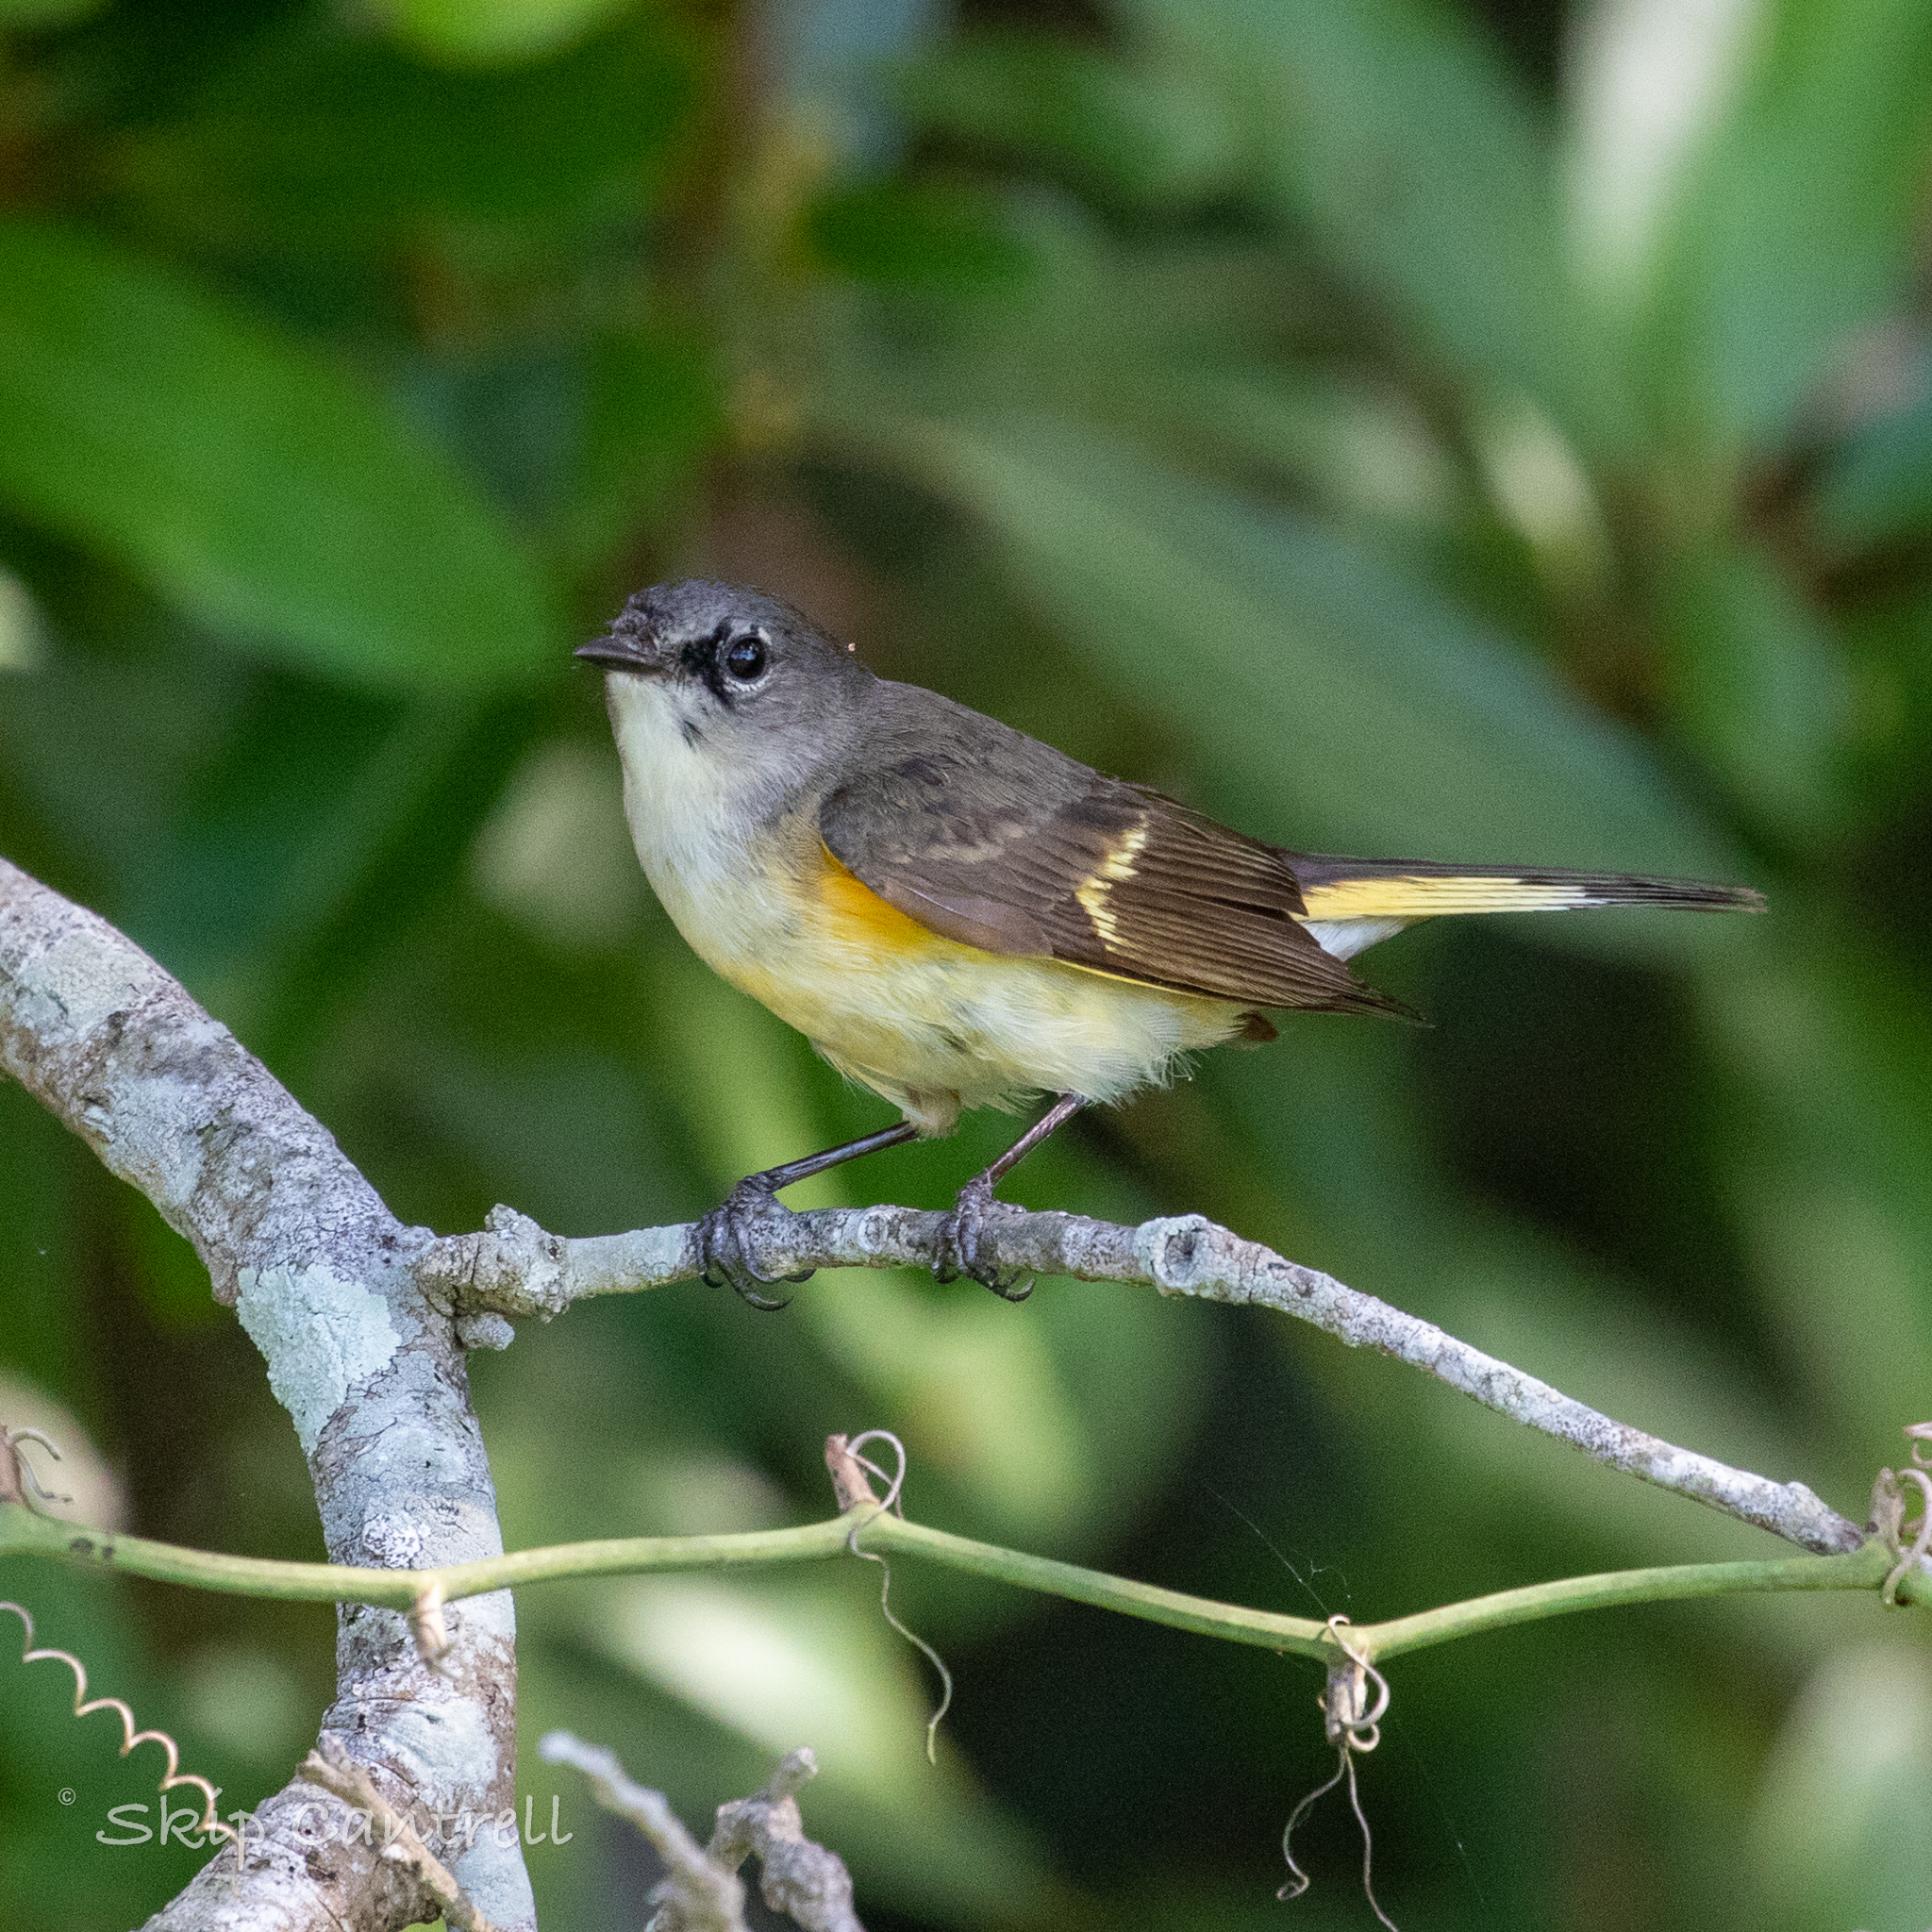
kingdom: Animalia
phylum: Chordata
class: Aves
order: Passeriformes
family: Parulidae
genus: Setophaga
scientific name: Setophaga ruticilla
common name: American redstart
